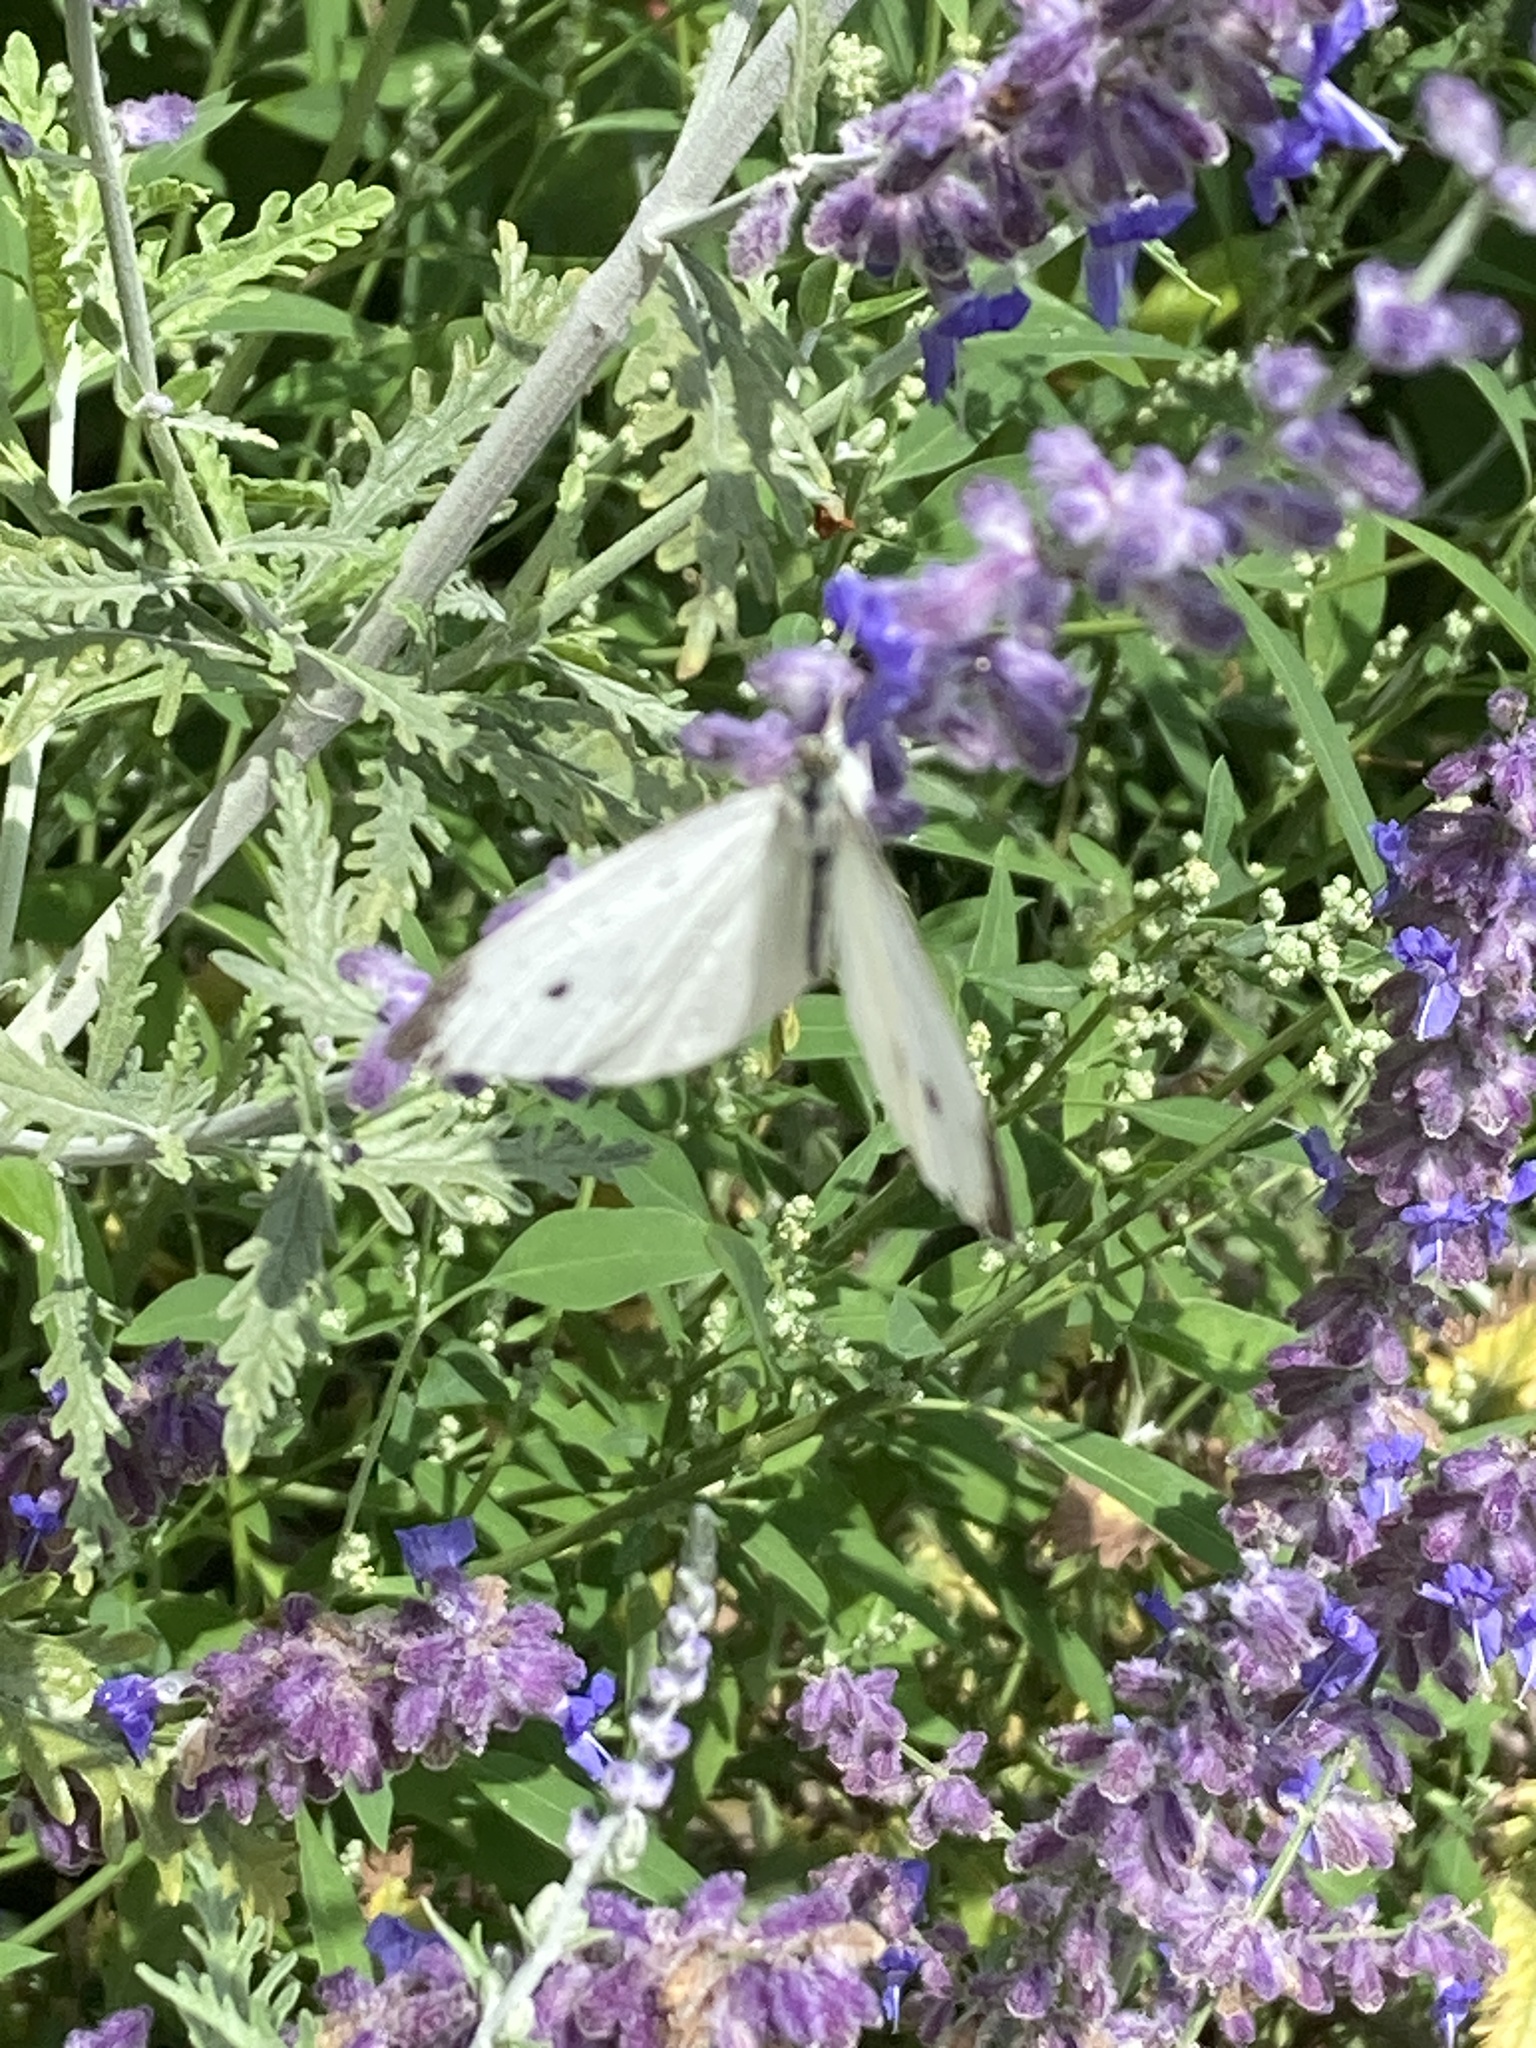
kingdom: Animalia
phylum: Arthropoda
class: Insecta
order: Lepidoptera
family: Pieridae
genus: Pieris
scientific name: Pieris rapae
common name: Small white
